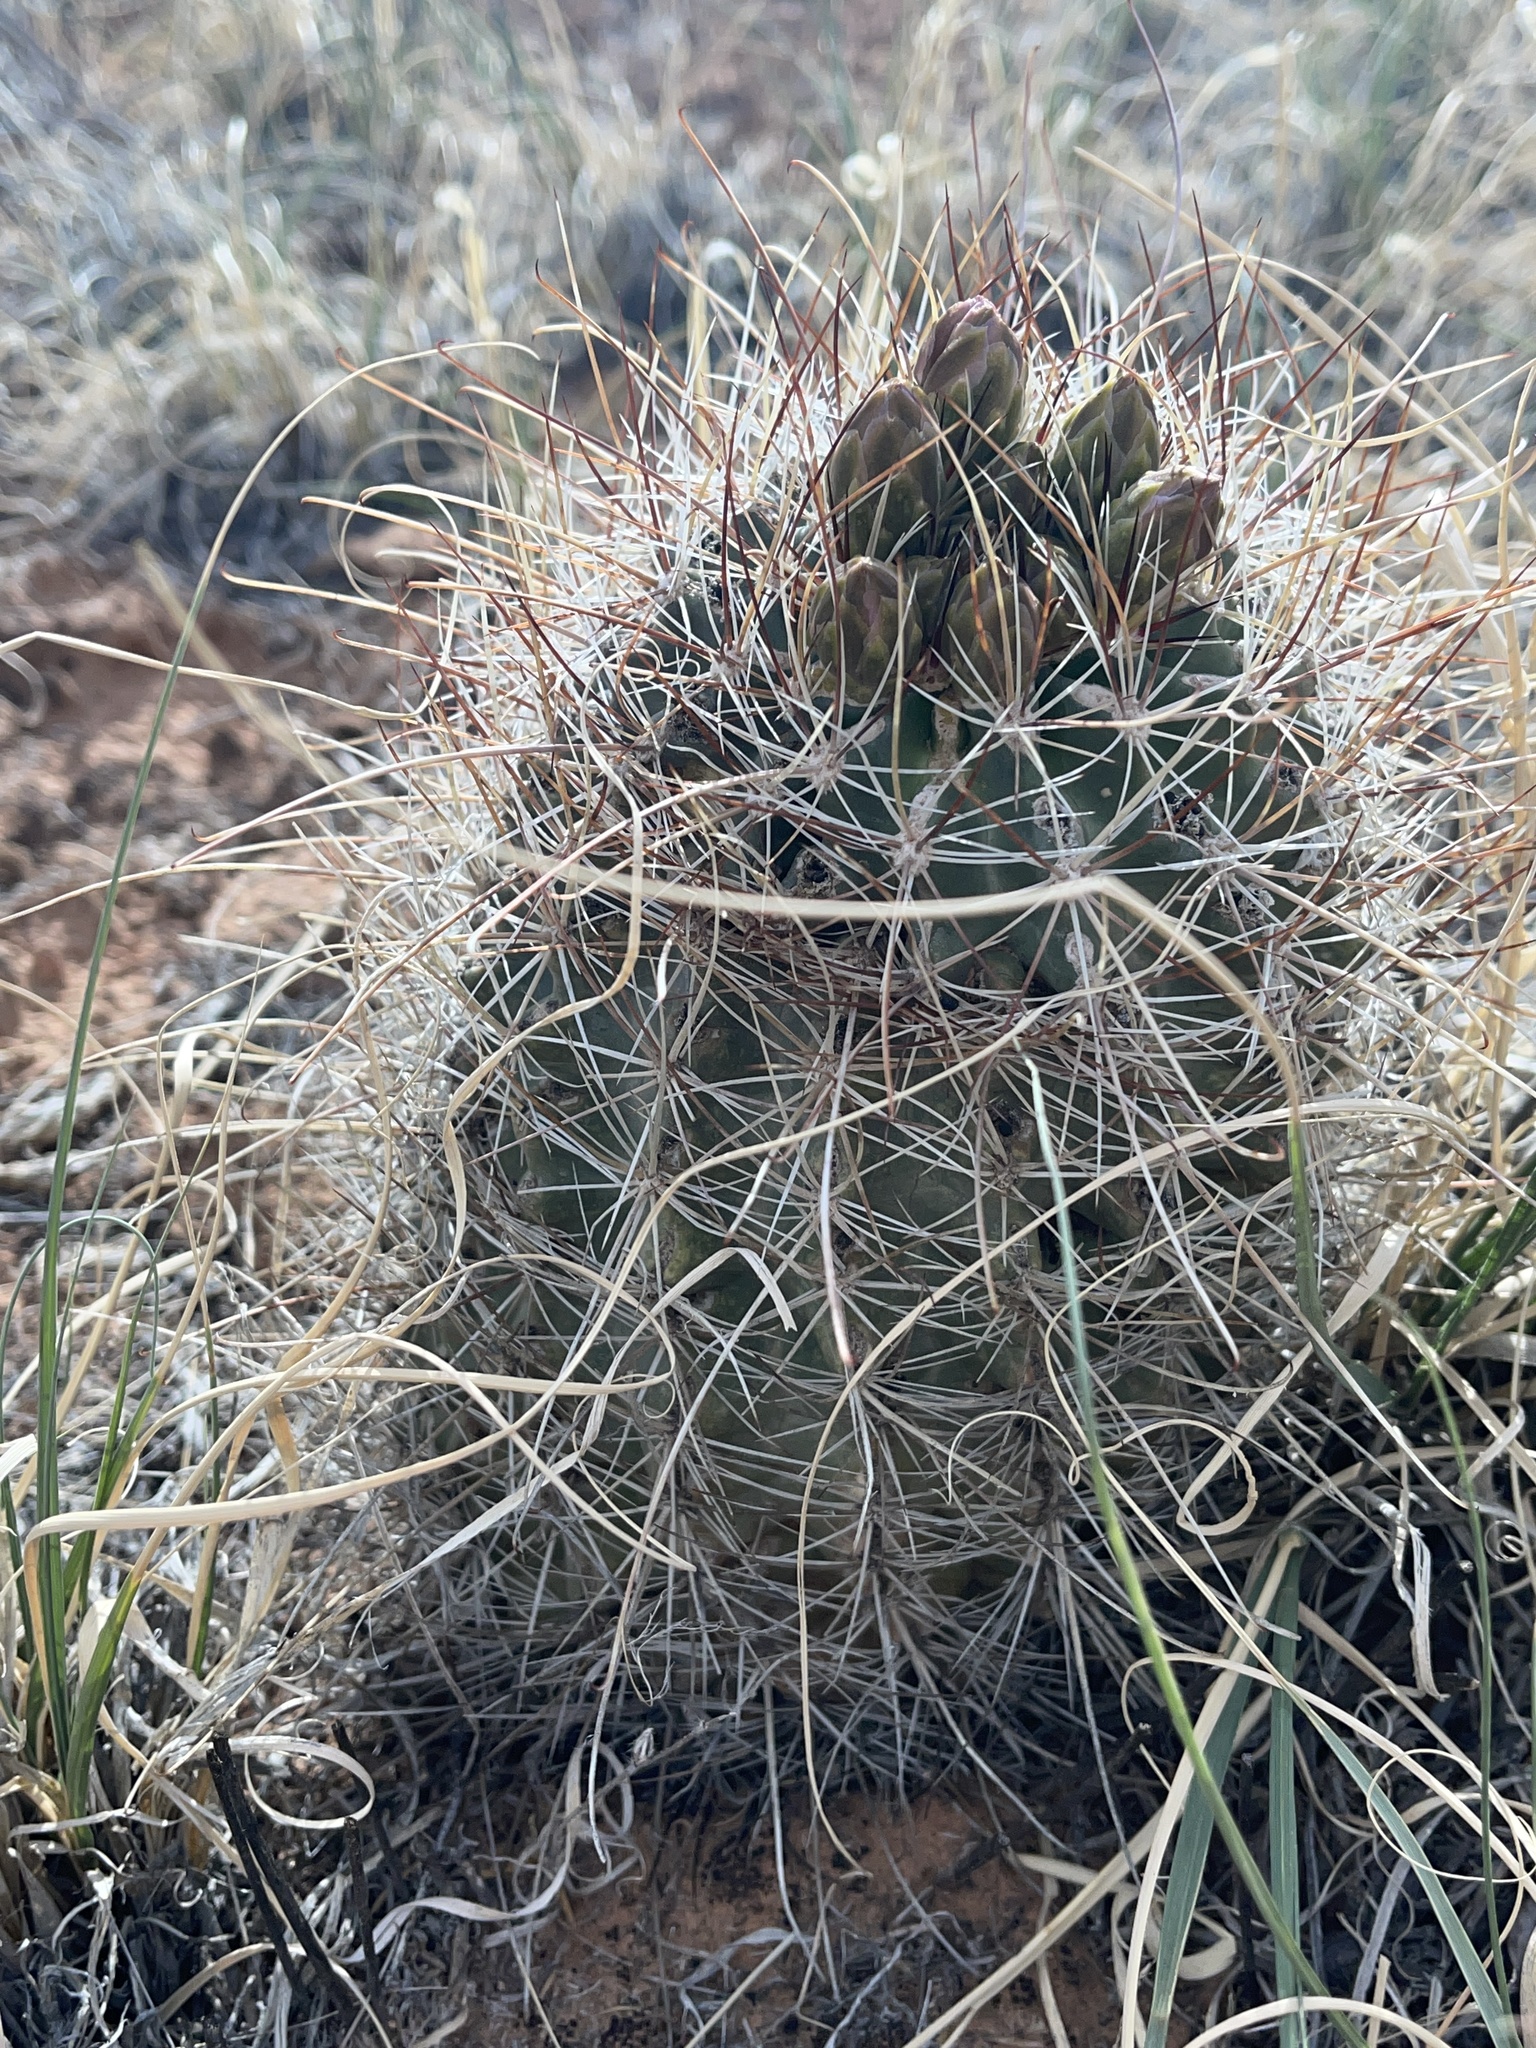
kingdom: Plantae
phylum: Tracheophyta
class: Magnoliopsida
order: Caryophyllales
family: Cactaceae
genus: Sclerocactus
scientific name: Sclerocactus parviflorus
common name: Small-flower fishhook cactus
